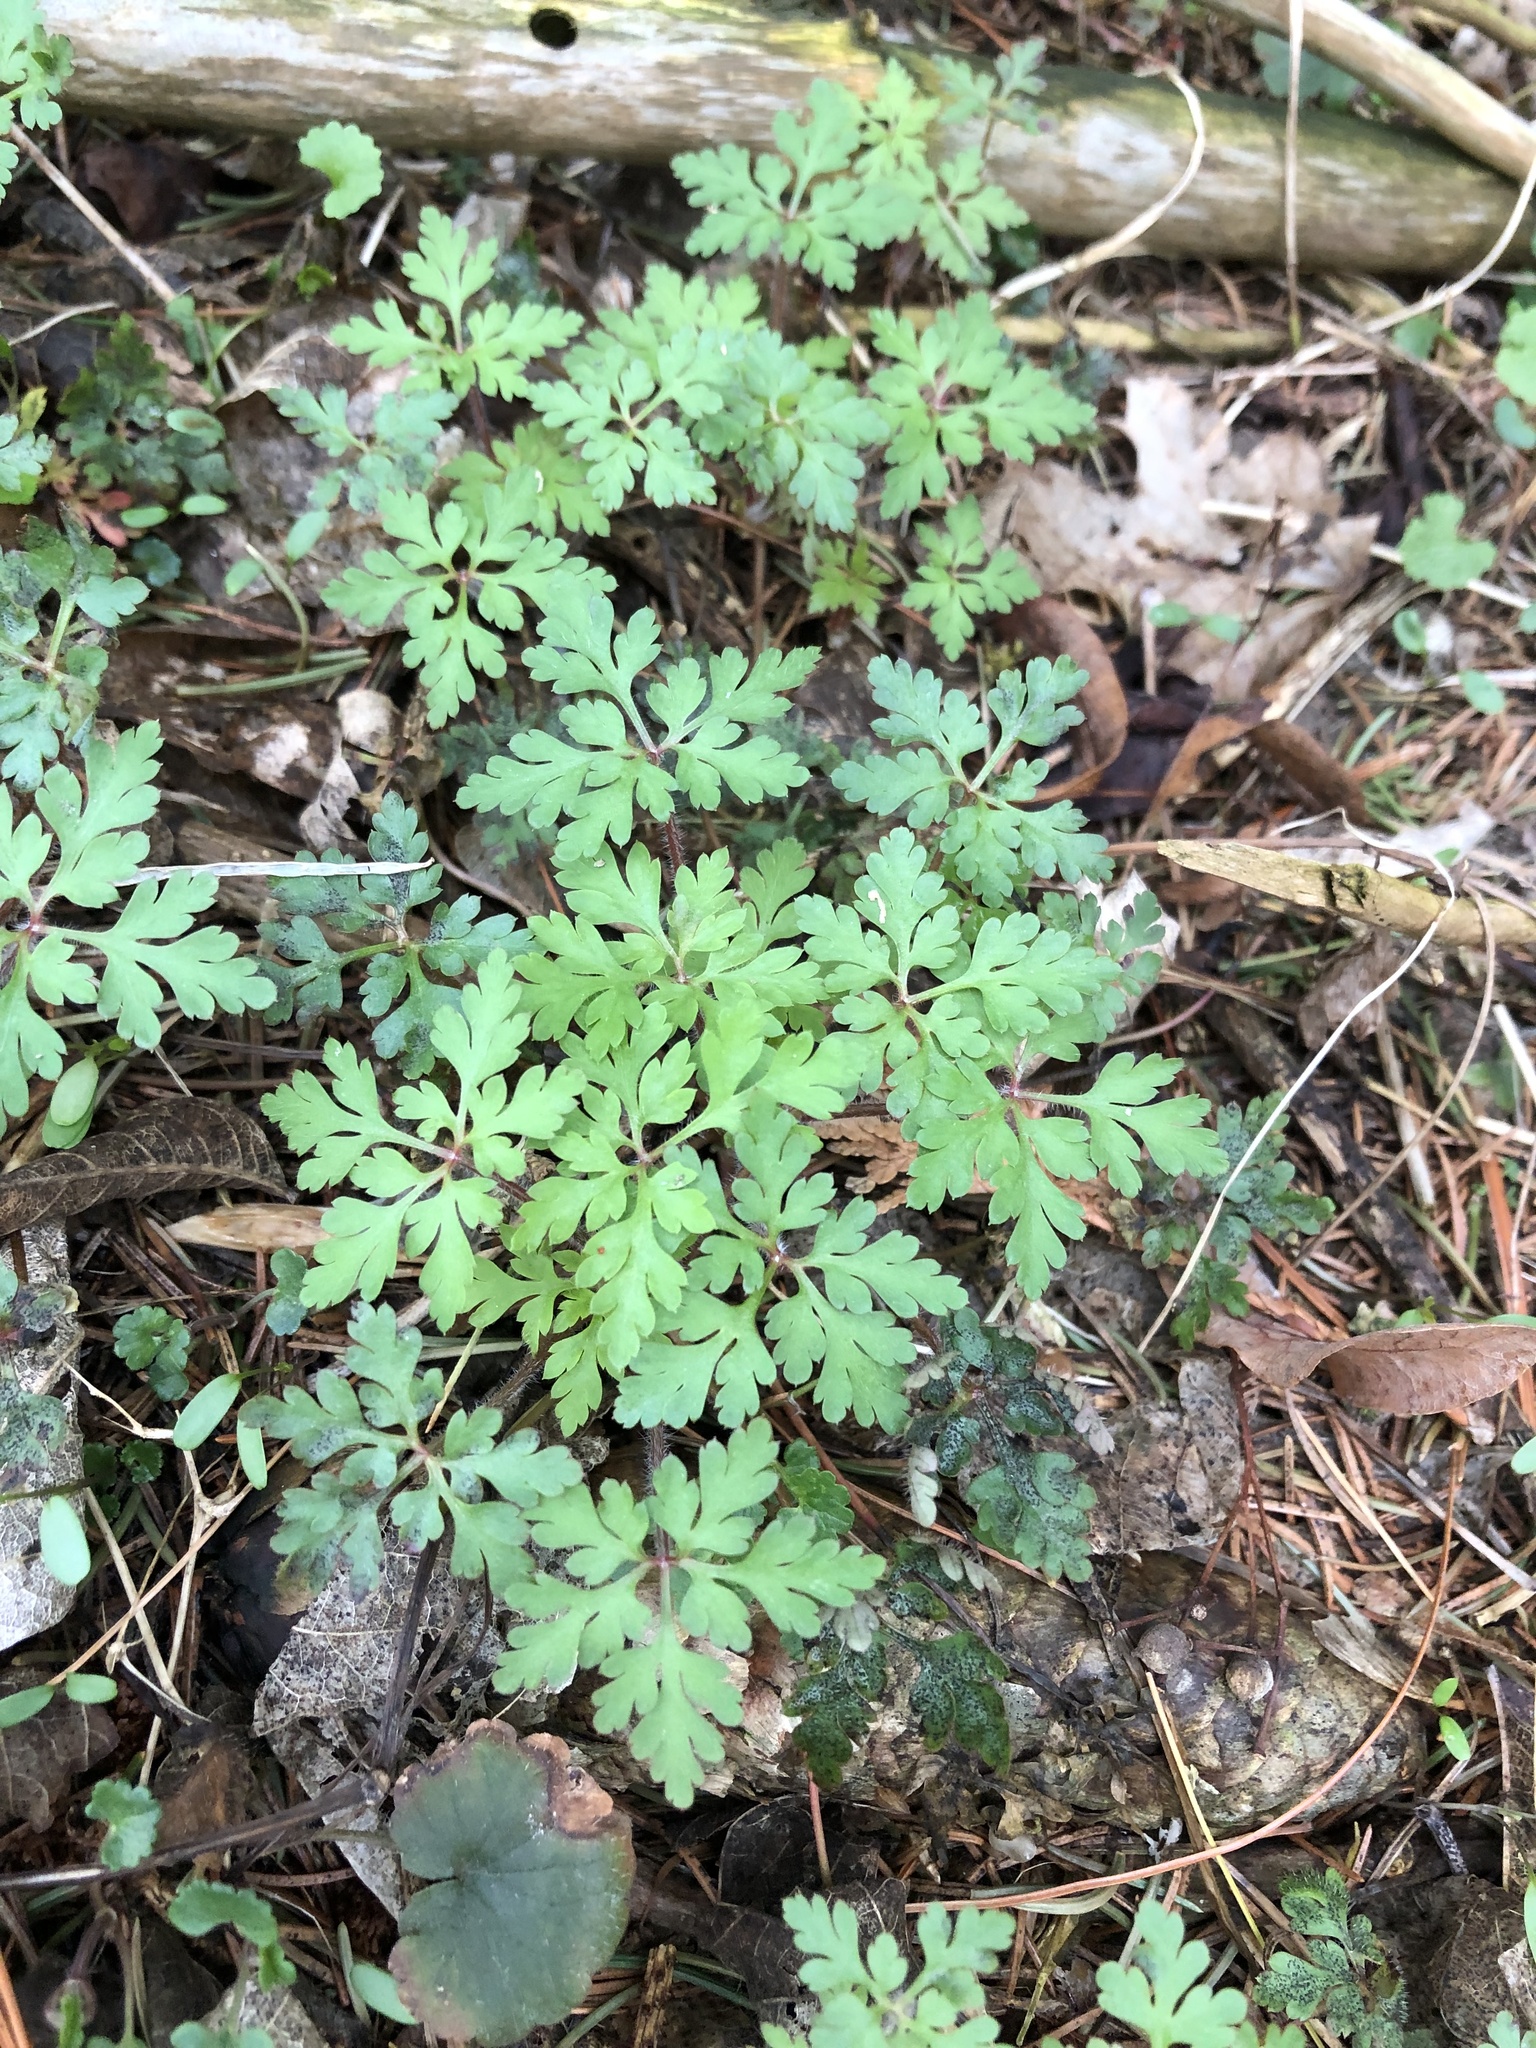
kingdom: Plantae
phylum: Tracheophyta
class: Magnoliopsida
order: Geraniales
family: Geraniaceae
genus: Geranium
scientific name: Geranium robertianum
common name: Herb-robert
